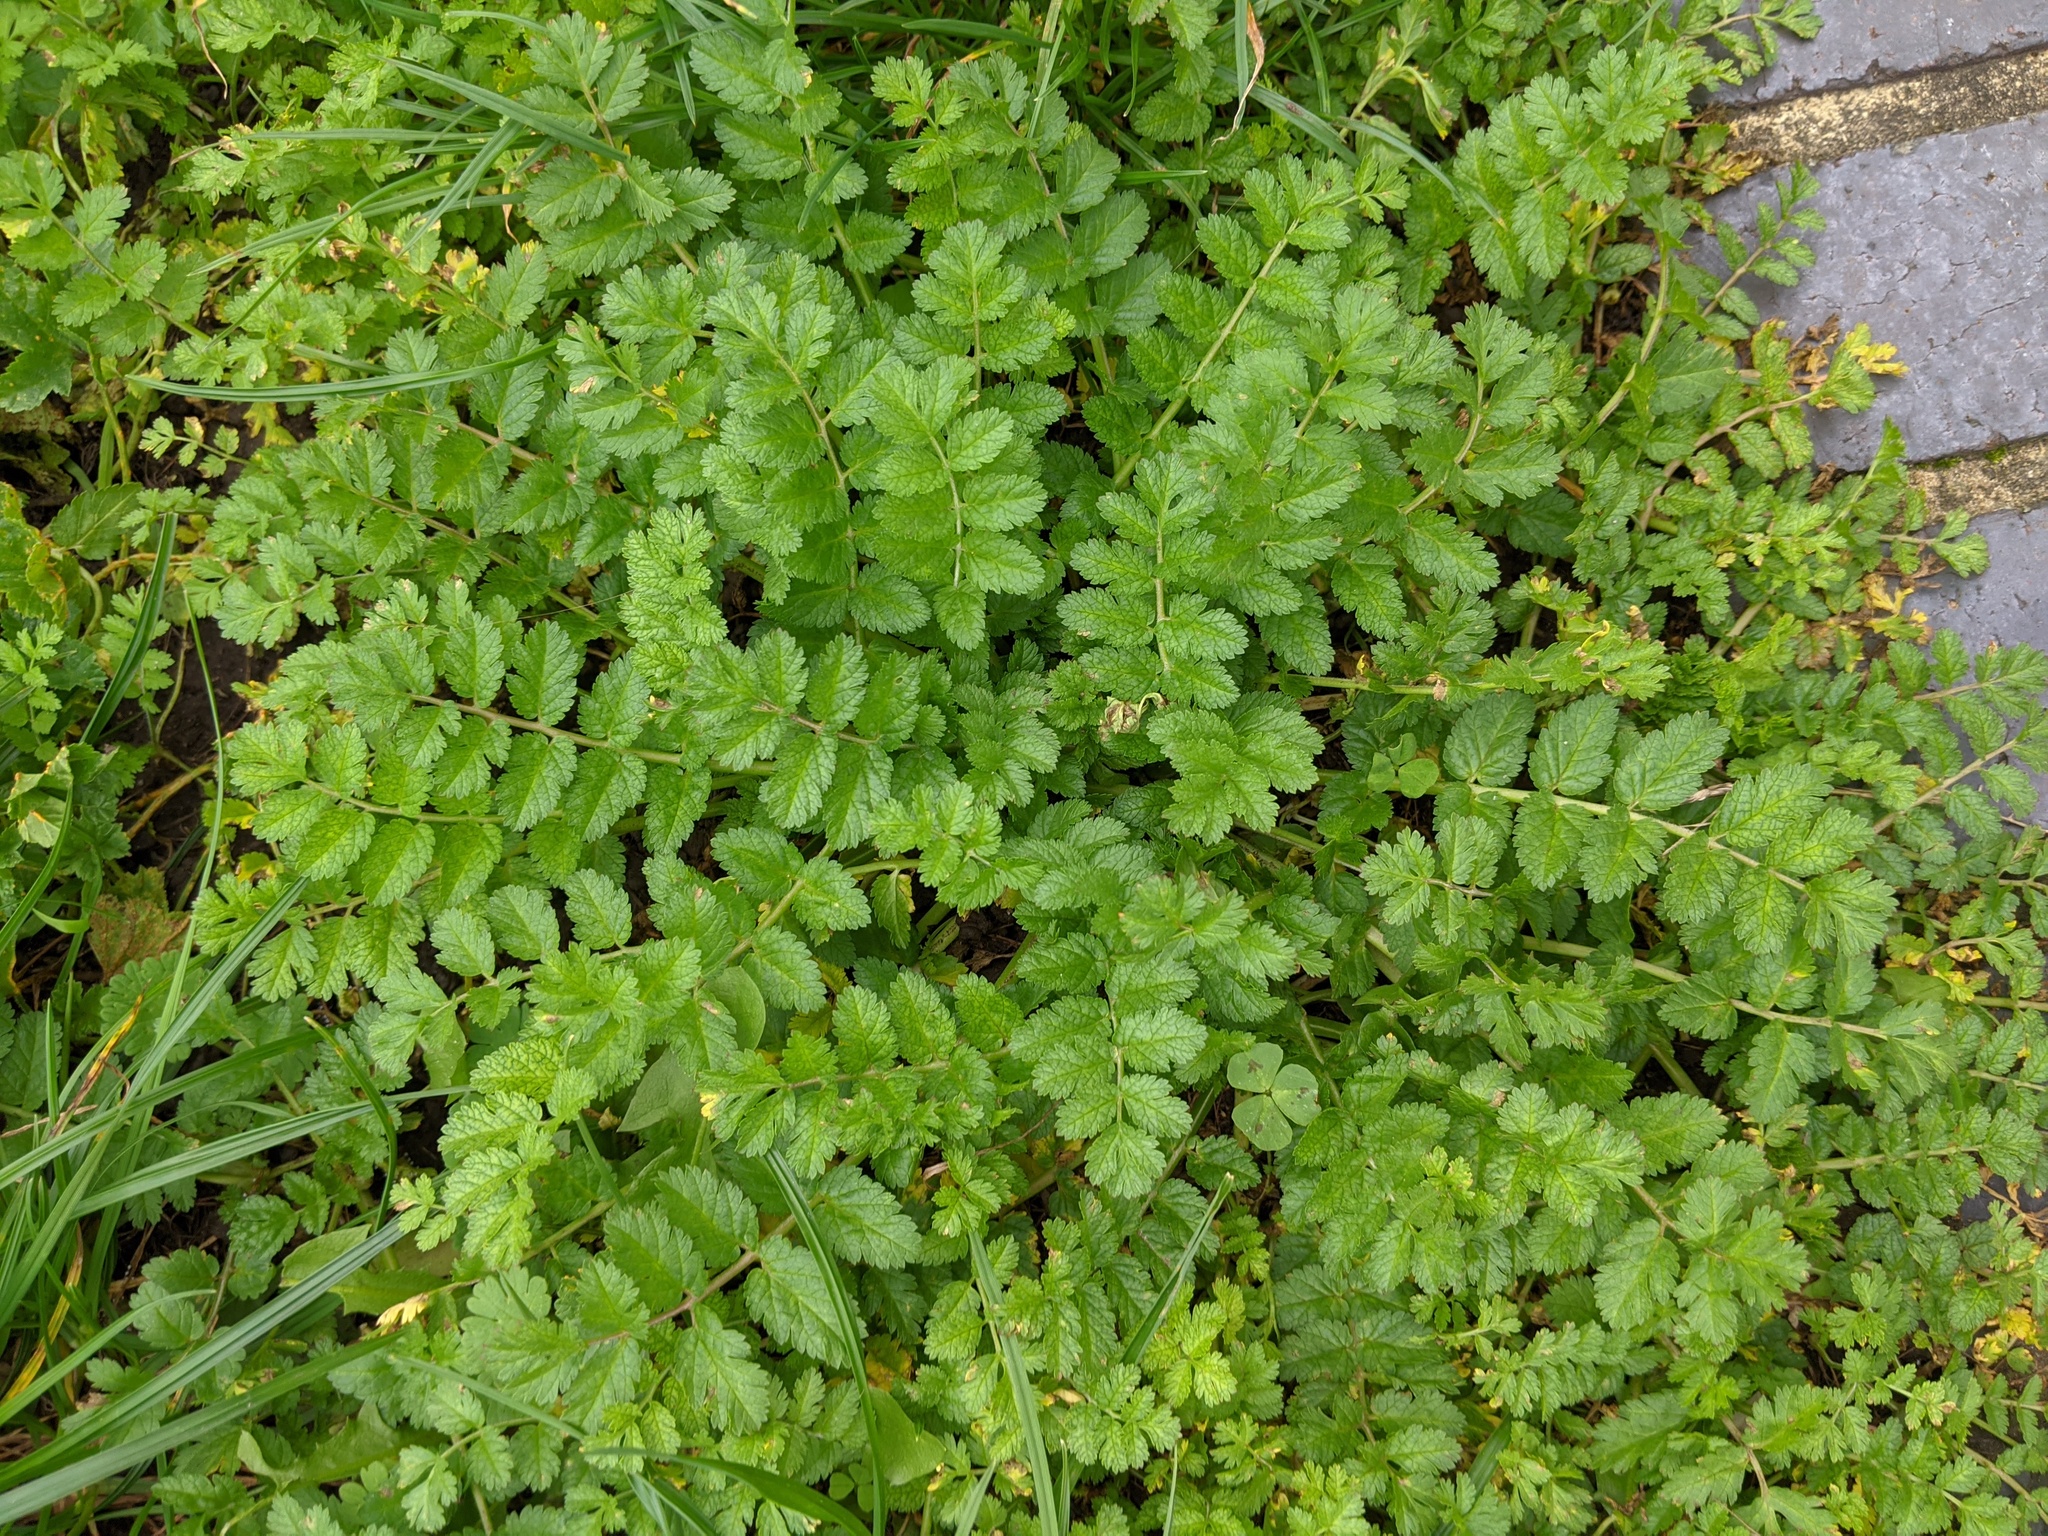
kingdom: Plantae
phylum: Tracheophyta
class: Magnoliopsida
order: Geraniales
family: Geraniaceae
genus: Erodium
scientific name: Erodium moschatum
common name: Musk stork's-bill
